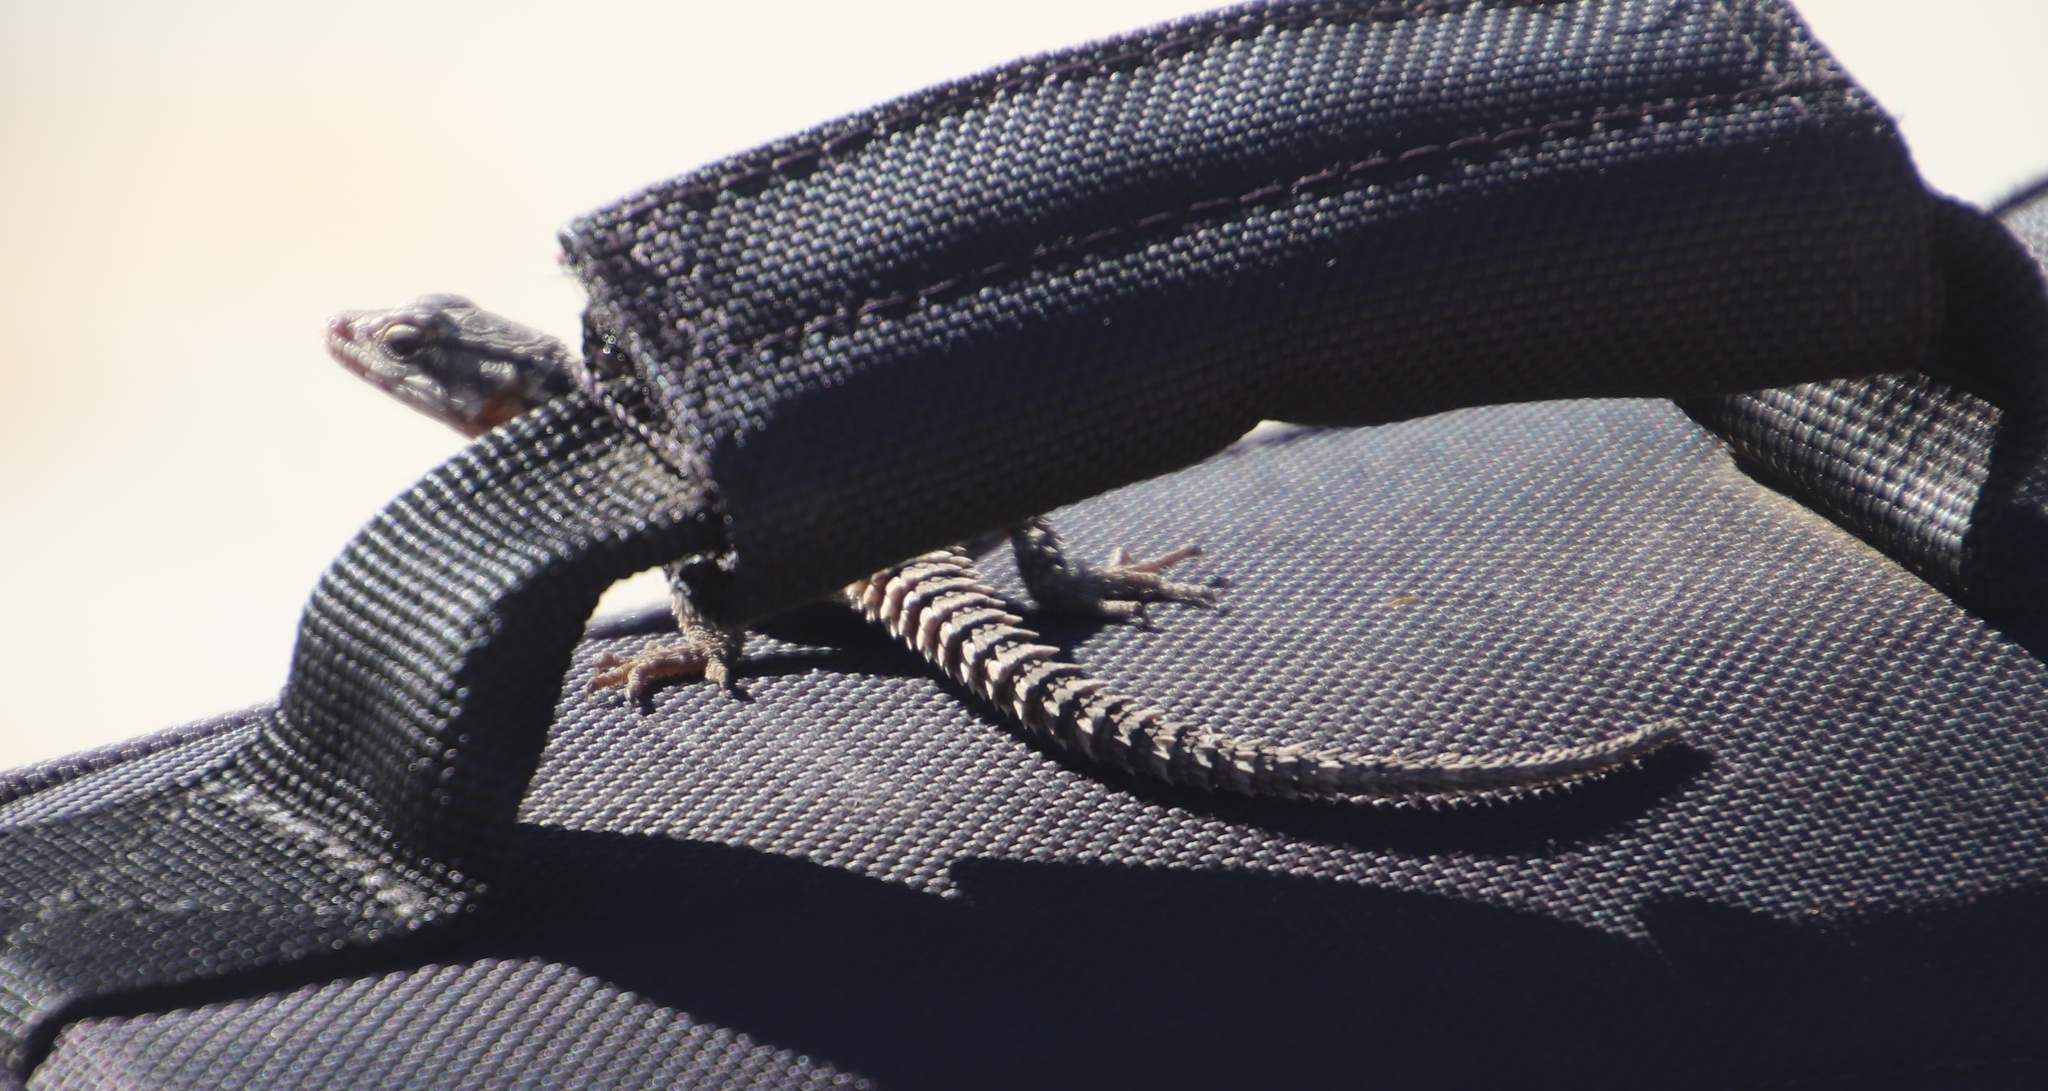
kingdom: Animalia
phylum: Chordata
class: Squamata
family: Cordylidae
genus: Karusasaurus
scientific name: Karusasaurus polyzonus
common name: Karoo girdled lizard
